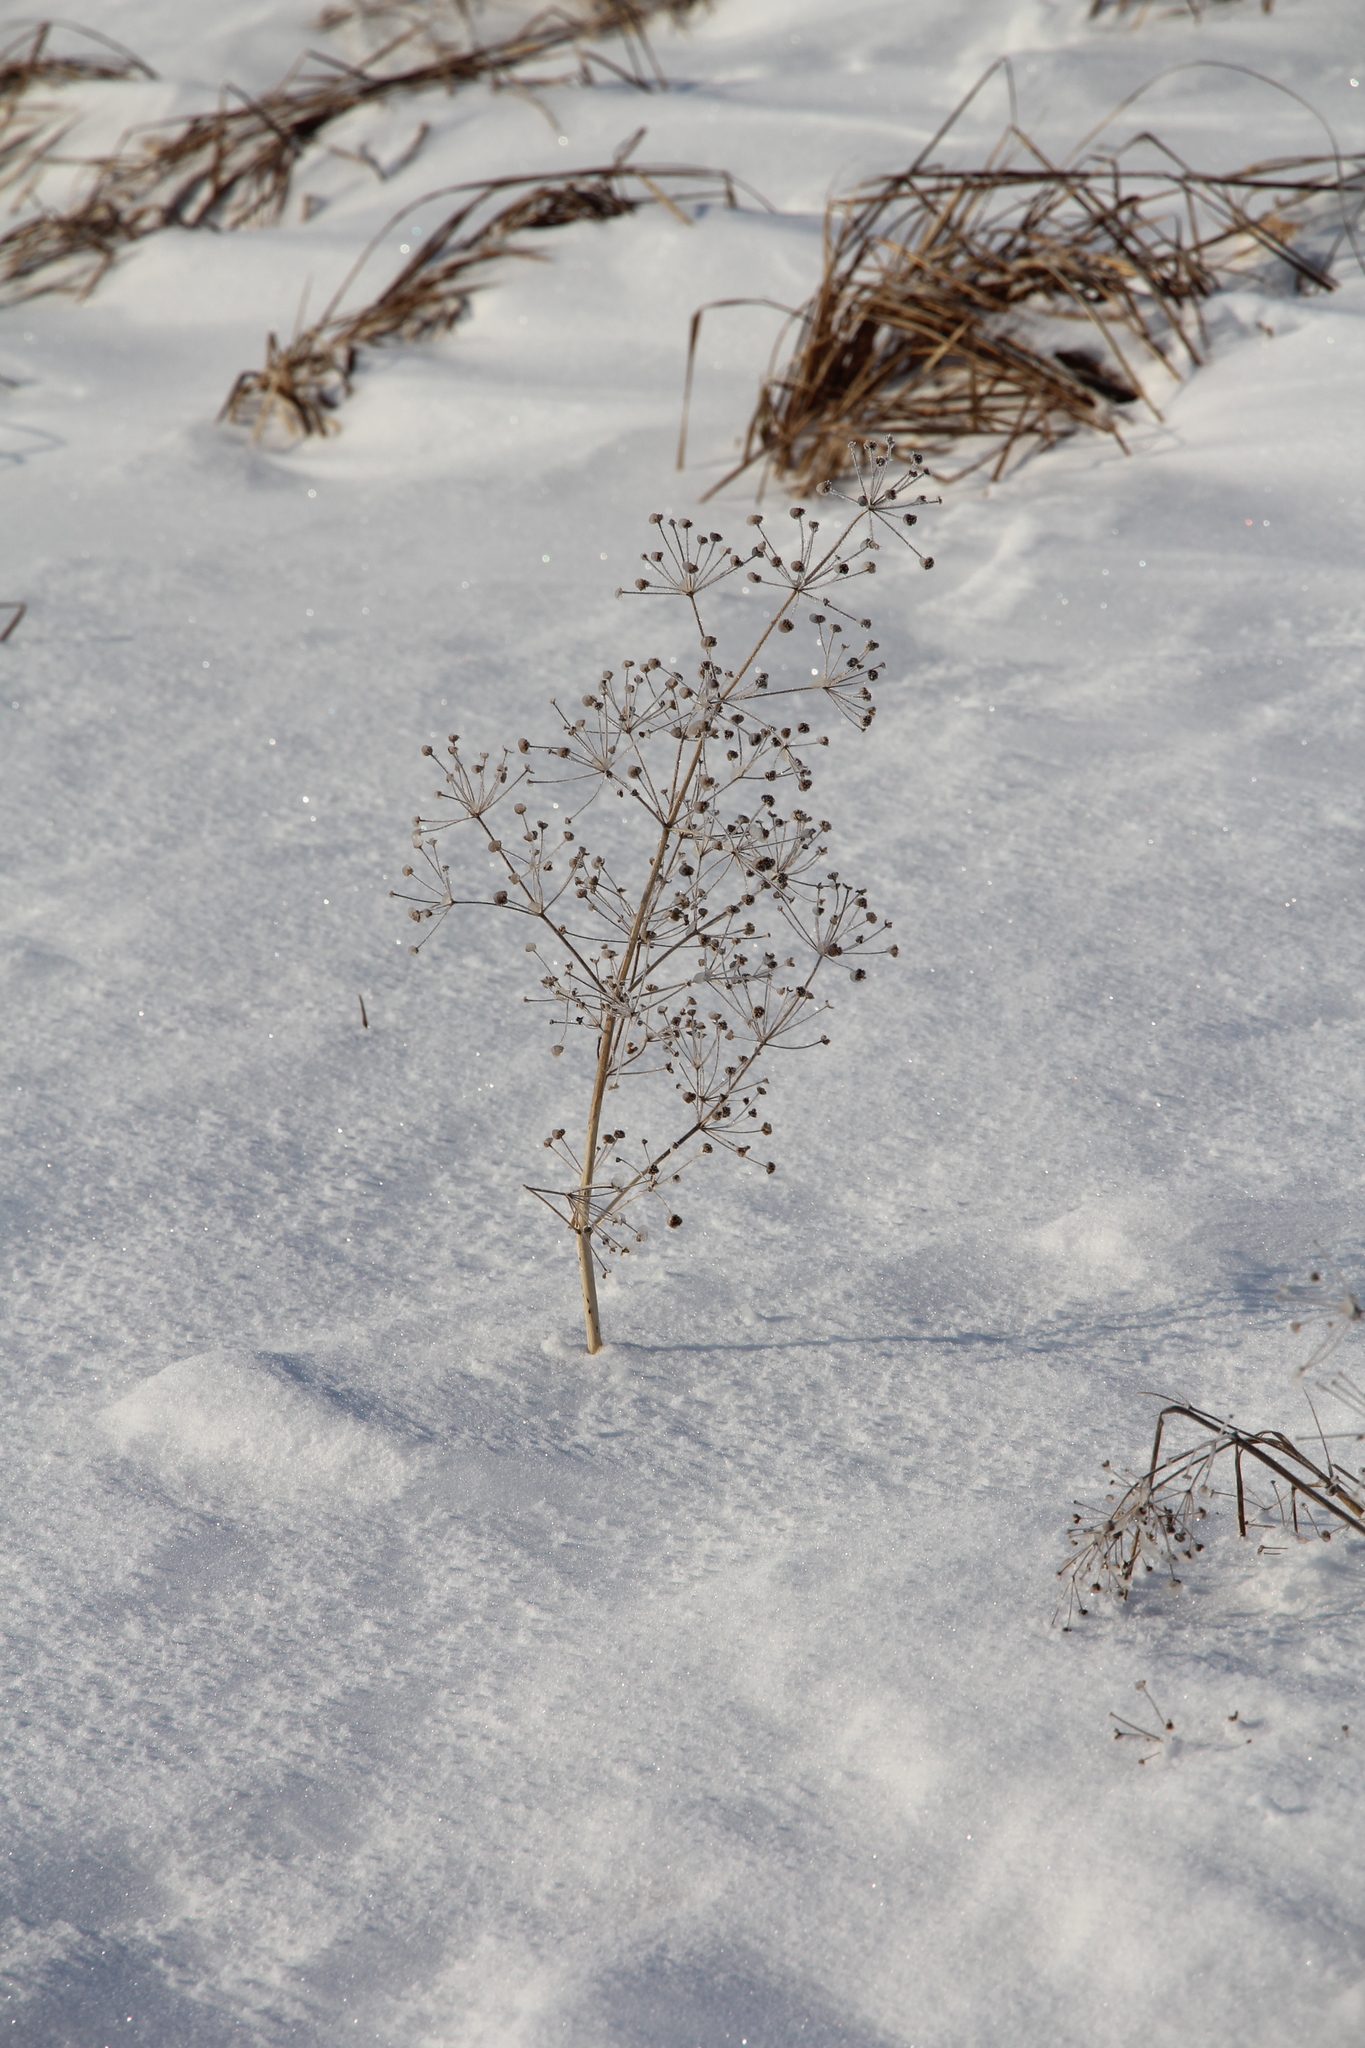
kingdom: Plantae
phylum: Tracheophyta
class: Liliopsida
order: Alismatales
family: Alismataceae
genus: Alisma
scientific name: Alisma plantago-aquatica
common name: Water-plantain
